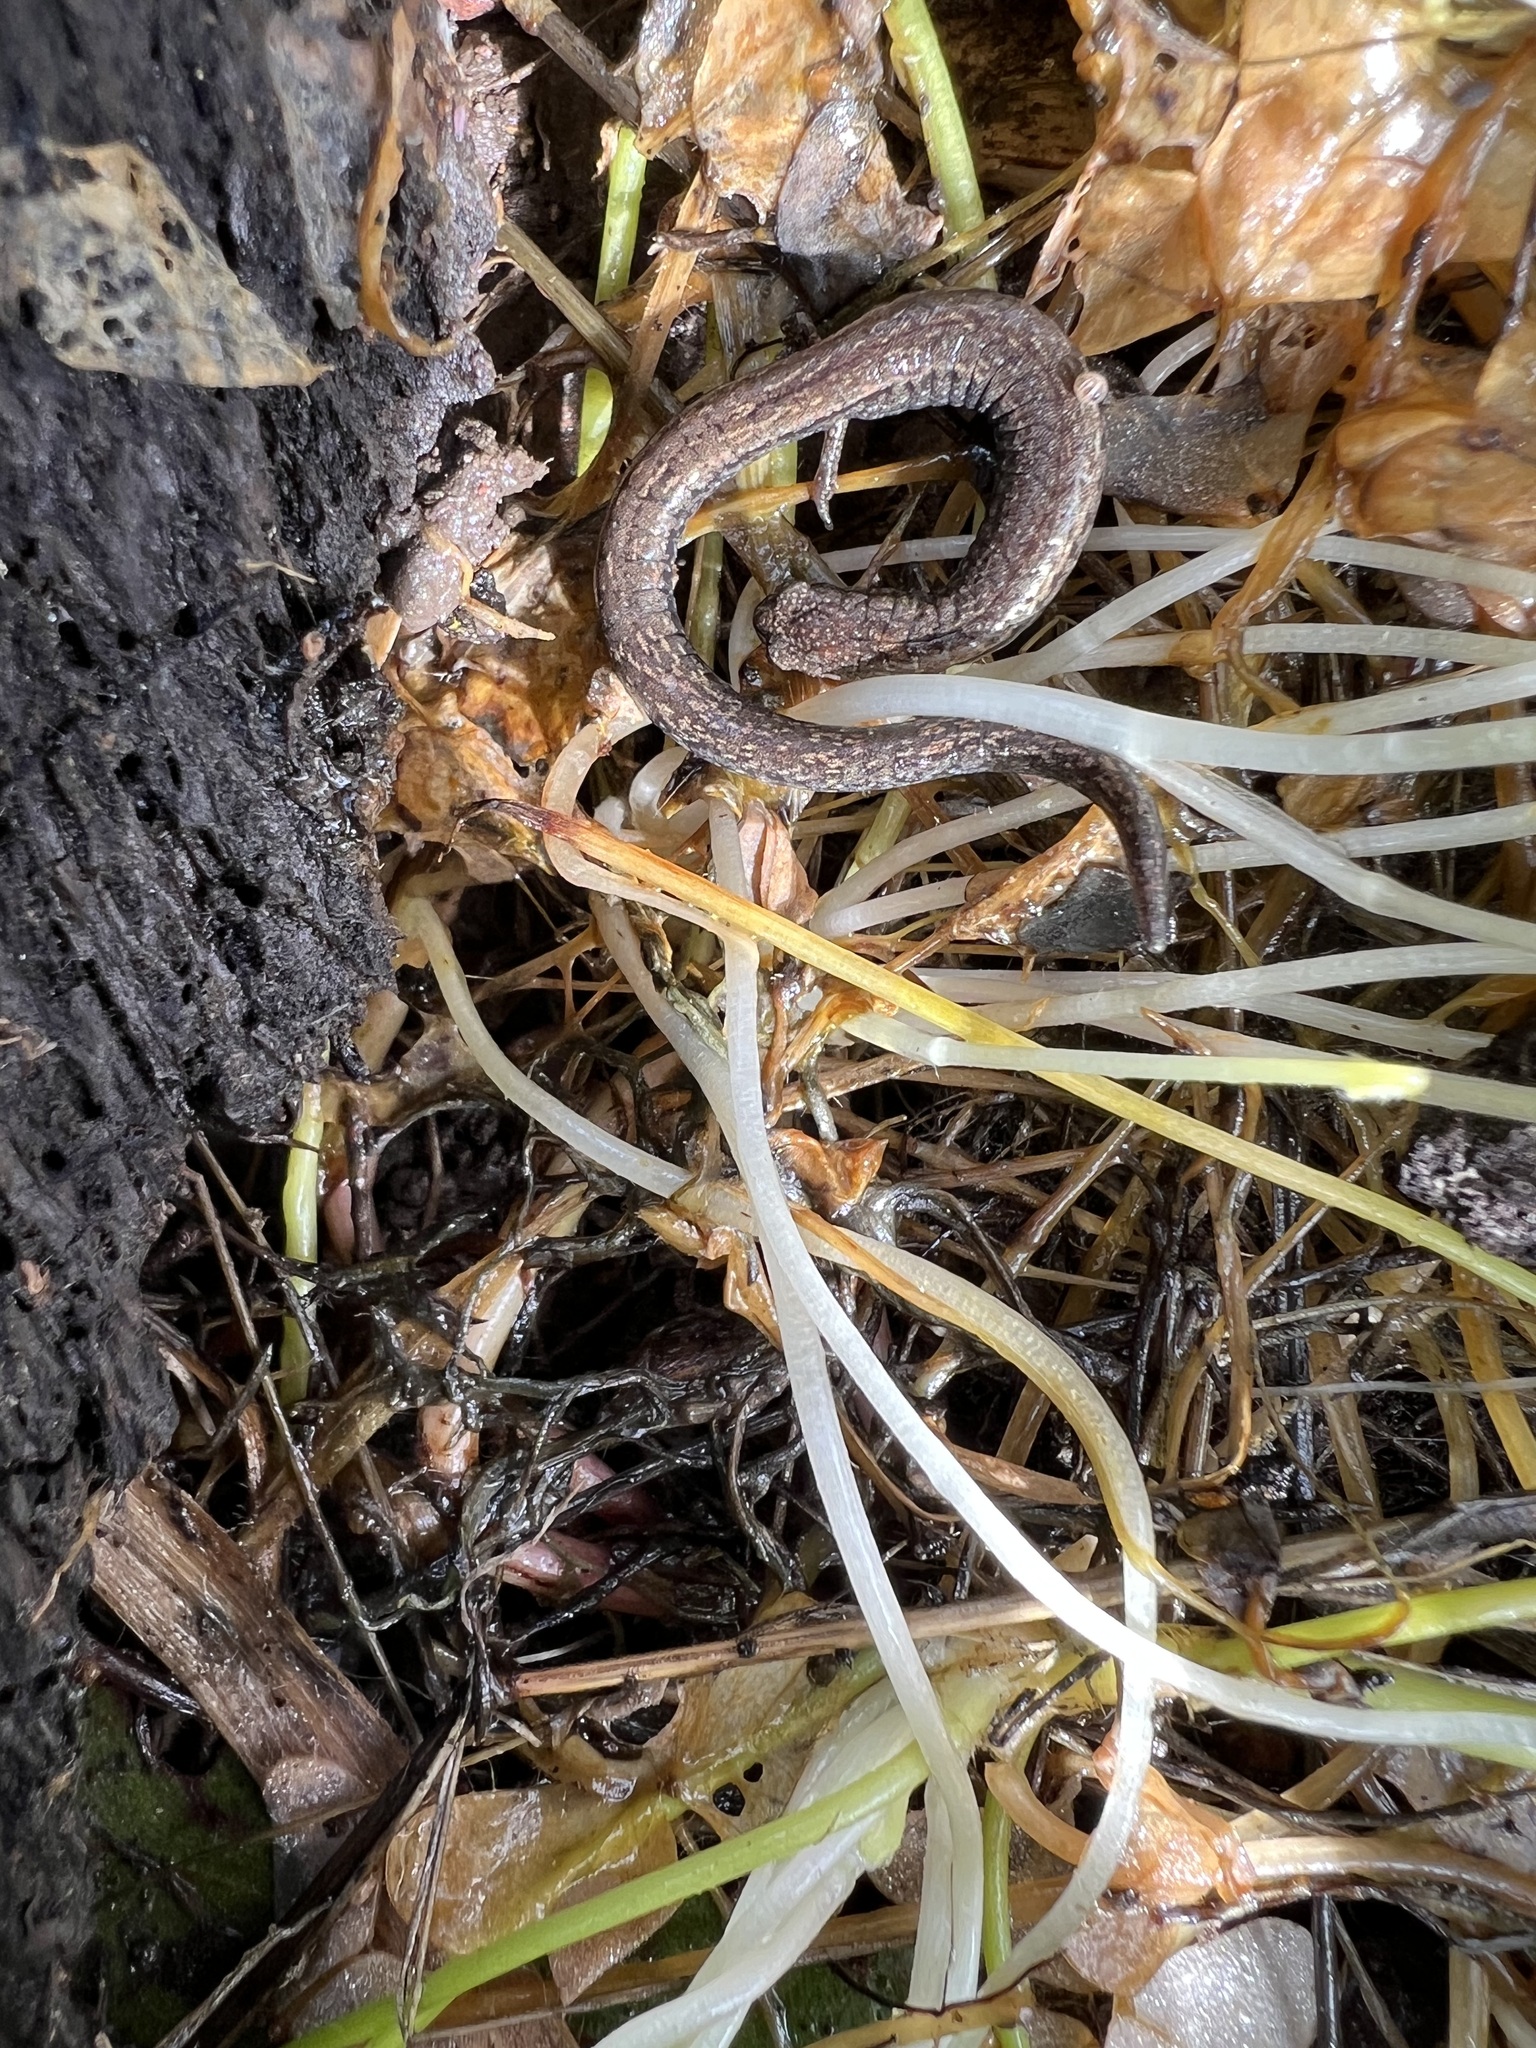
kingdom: Animalia
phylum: Chordata
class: Amphibia
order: Caudata
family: Plethodontidae
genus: Batrachoseps
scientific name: Batrachoseps nigriventris
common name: Black-bellied slender salamander
